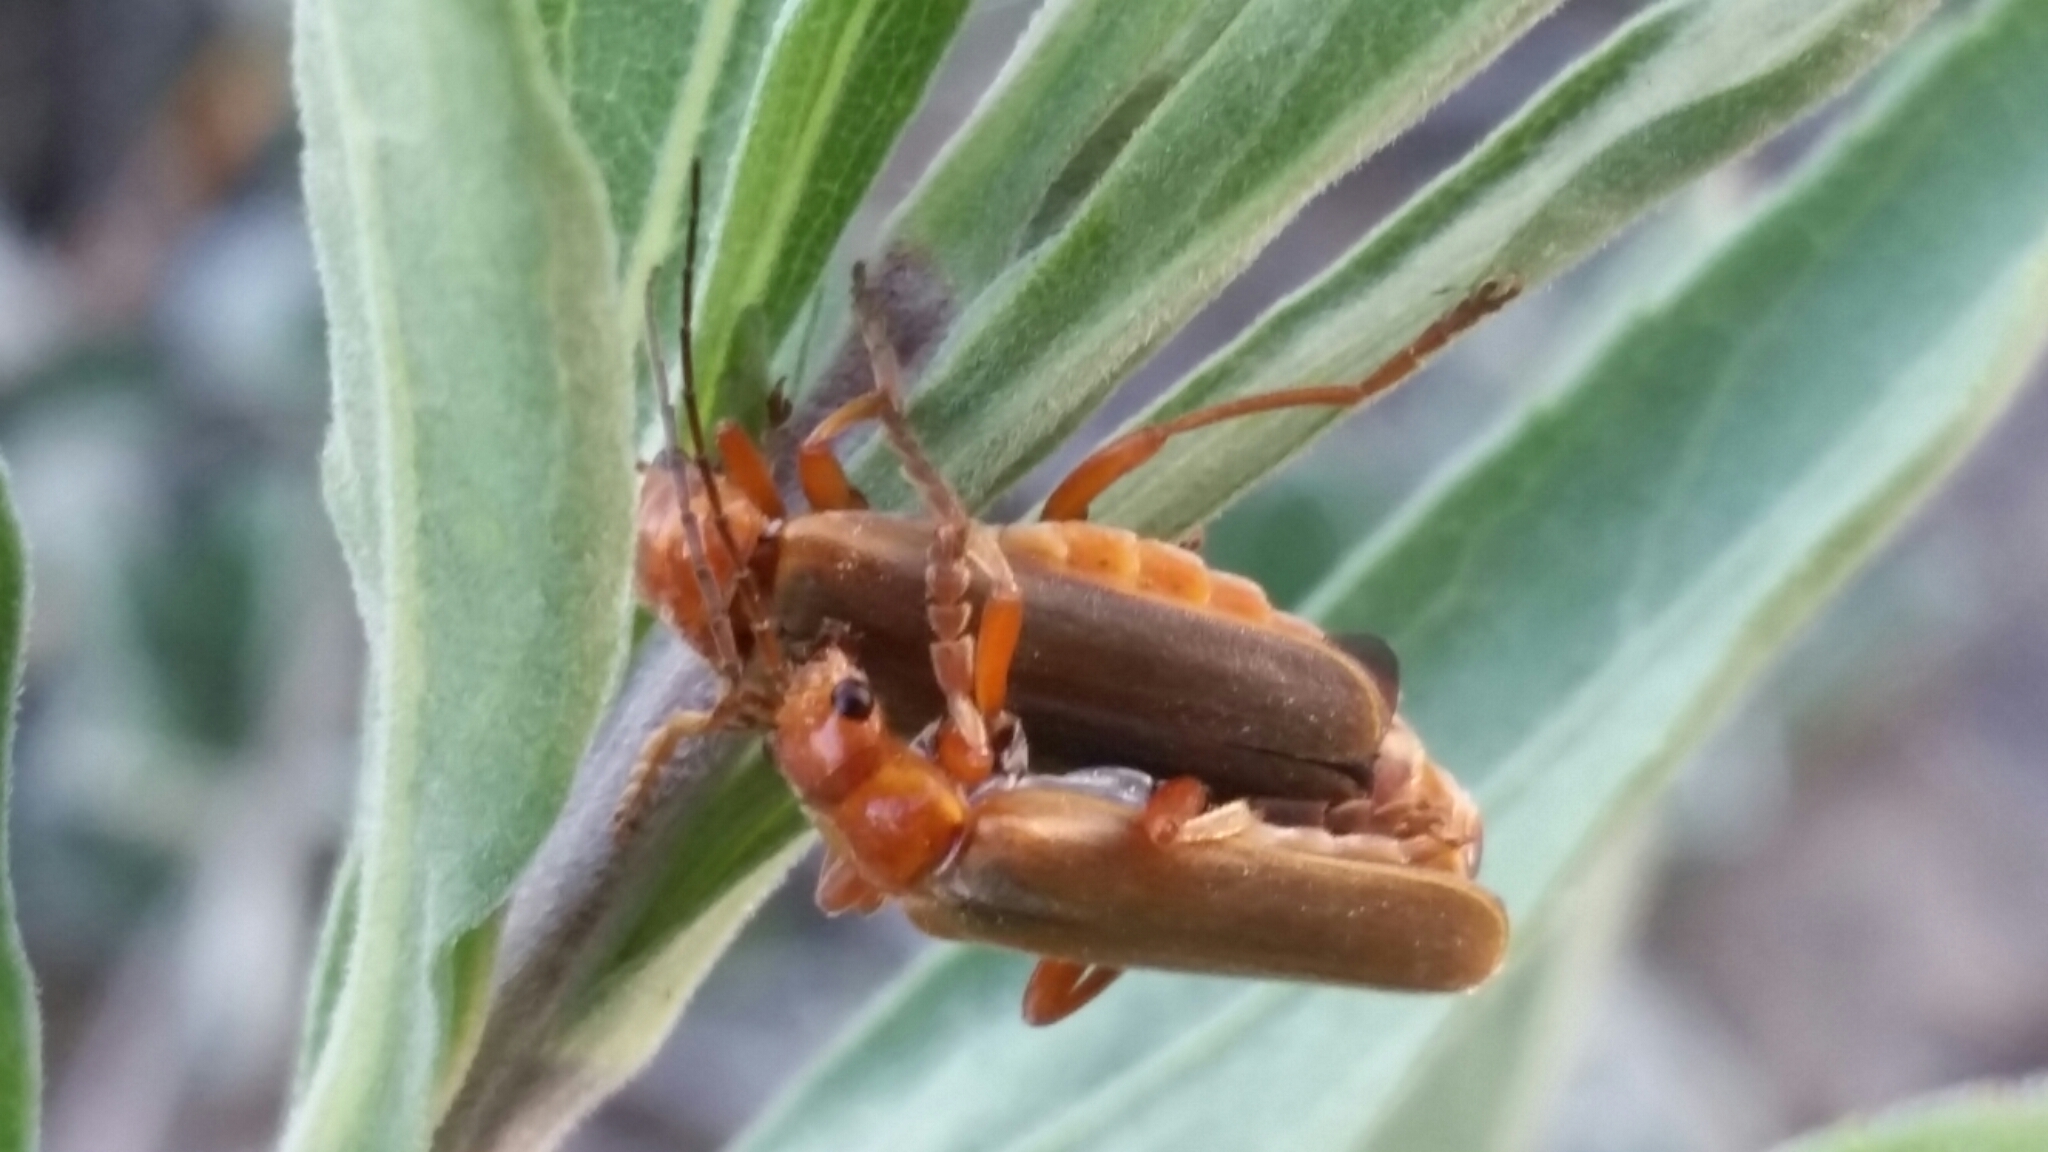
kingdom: Animalia
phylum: Arthropoda
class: Insecta
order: Coleoptera
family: Cantharidae
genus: Cantharis
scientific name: Cantharis rufa
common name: Red-spotted soldier beetle
